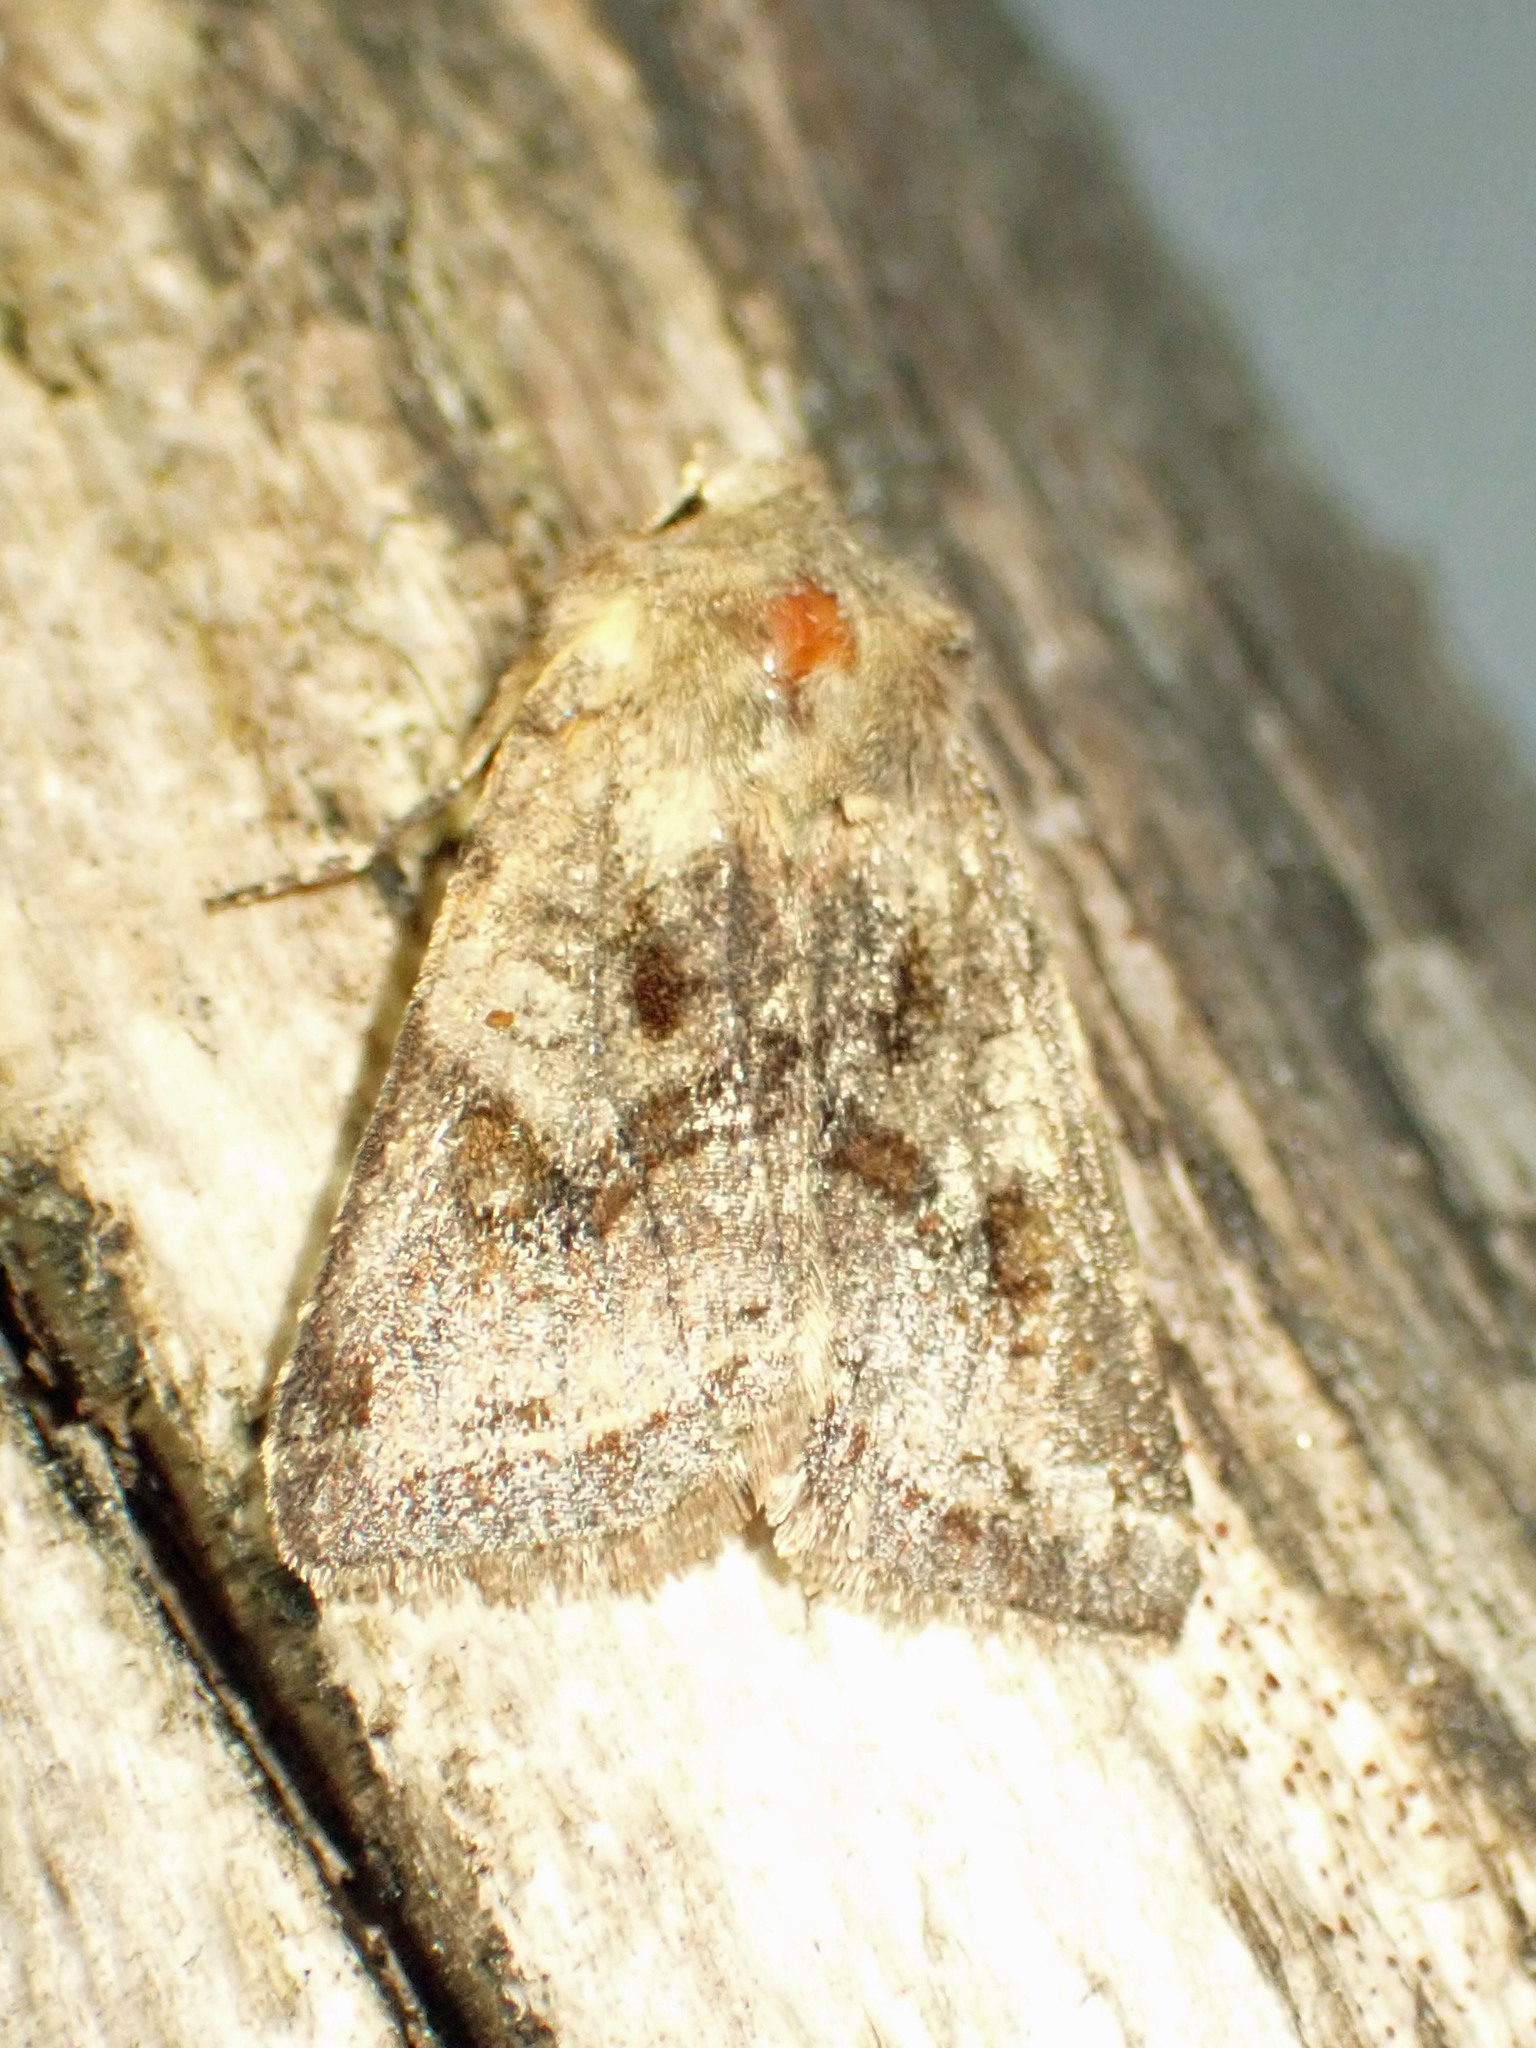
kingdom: Animalia
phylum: Arthropoda
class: Insecta
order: Lepidoptera
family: Noctuidae
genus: Cerastis
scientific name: Cerastis salicarum
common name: Willow dart
